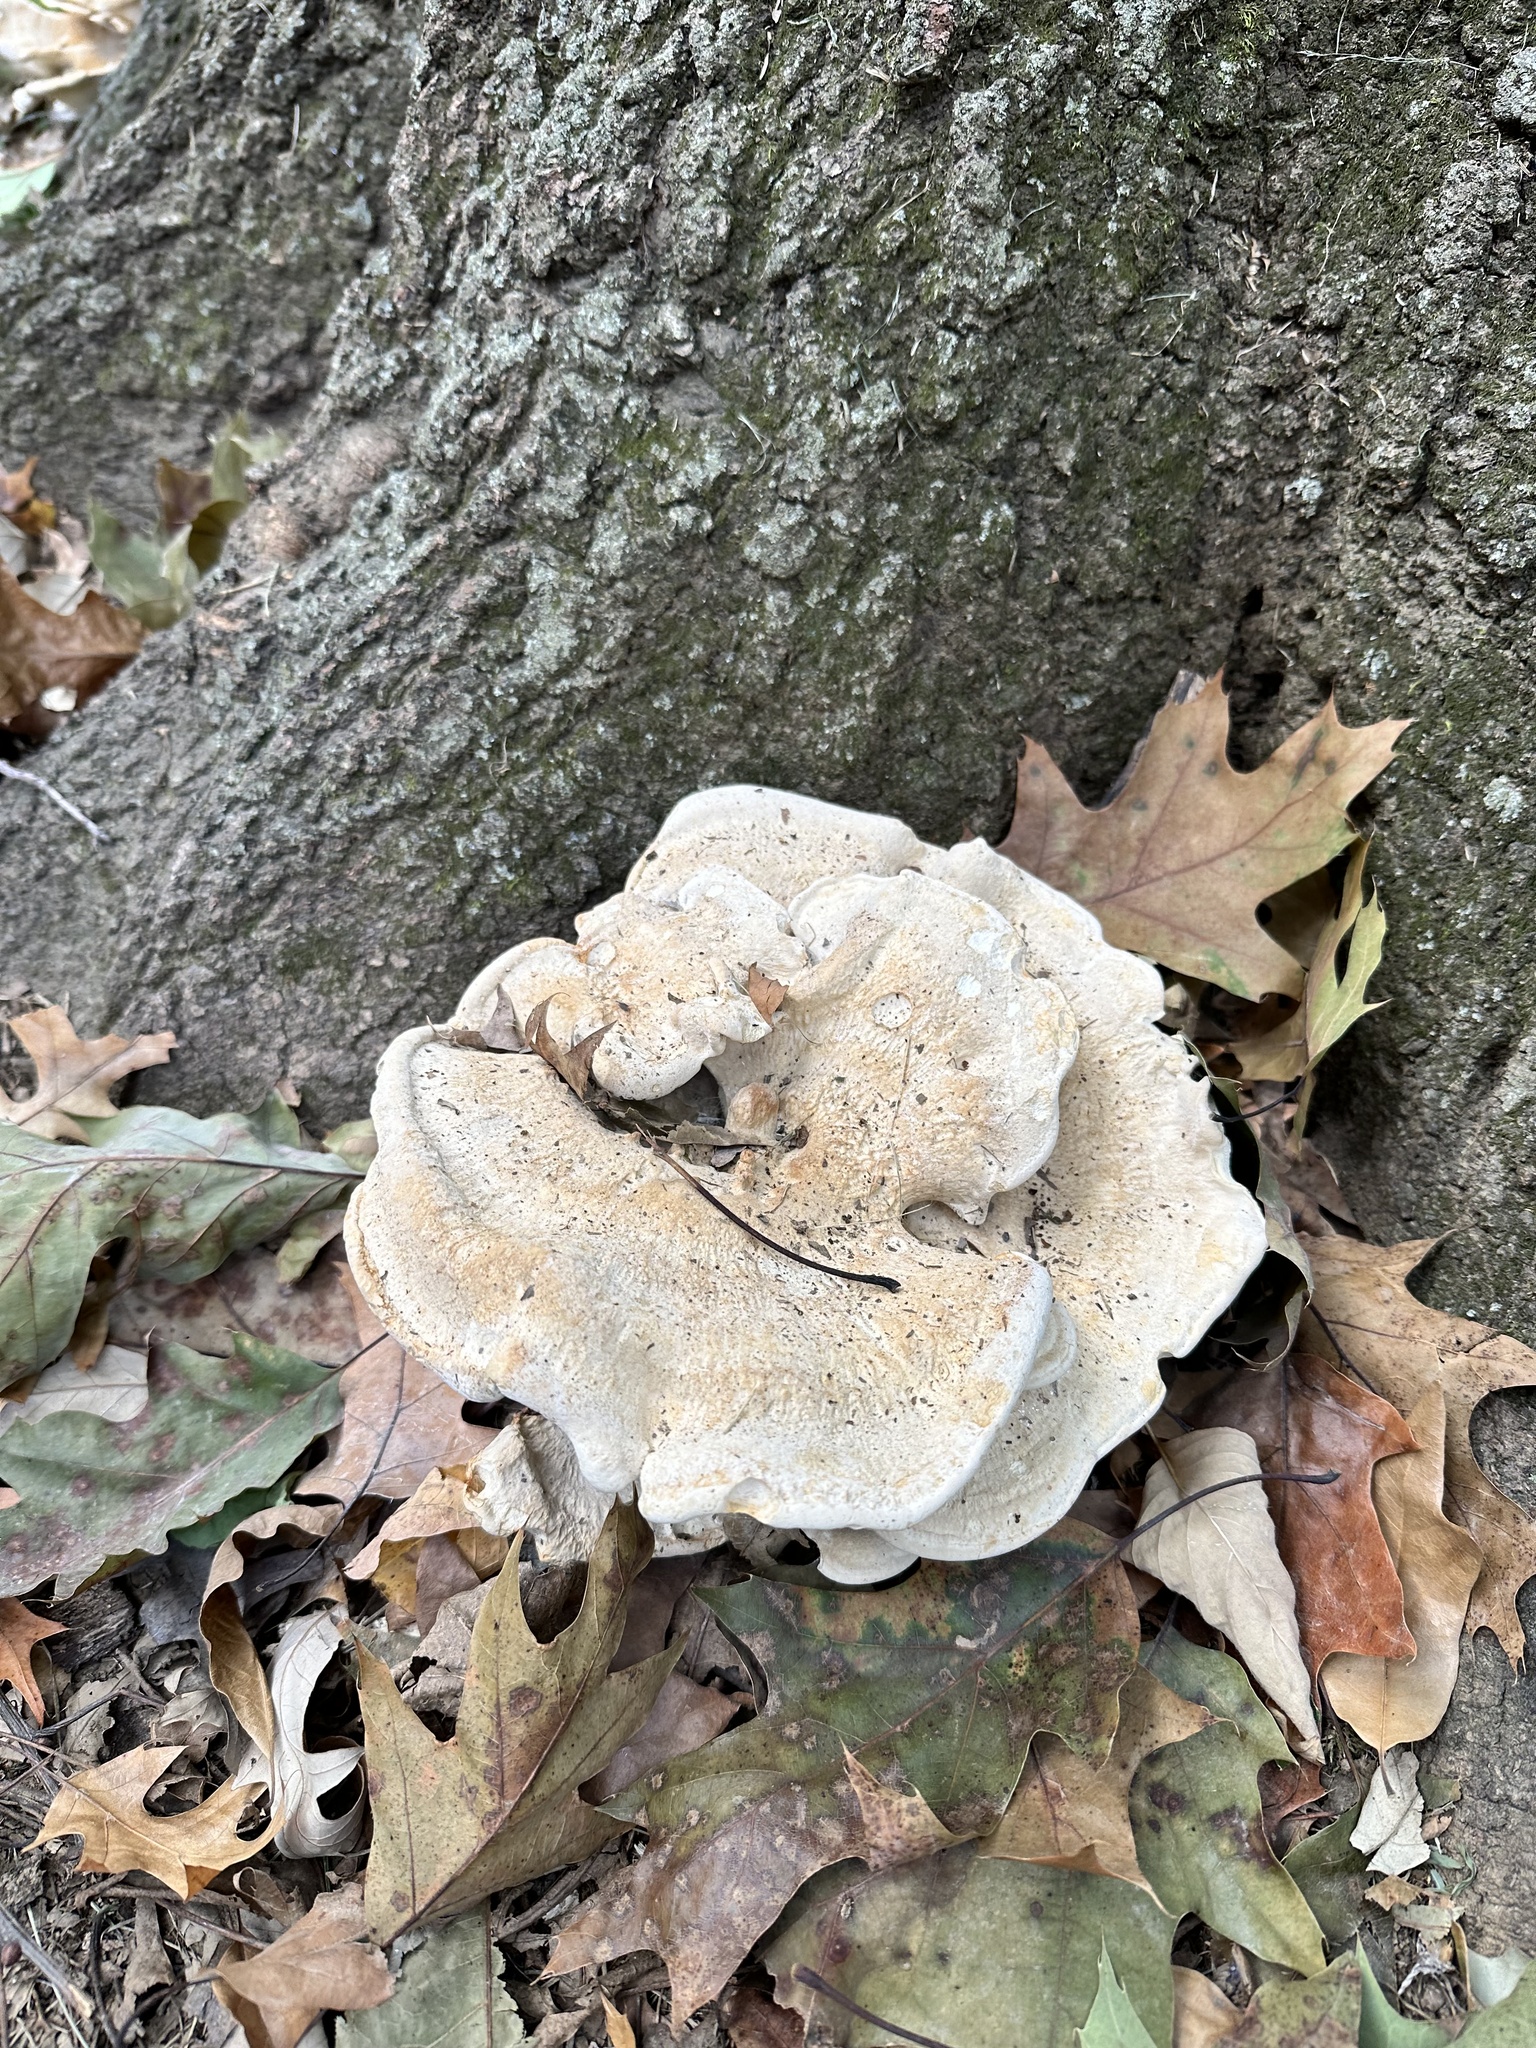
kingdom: Fungi
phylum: Basidiomycota
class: Agaricomycetes
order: Russulales
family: Bondarzewiaceae
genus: Bondarzewia
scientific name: Bondarzewia berkeleyi
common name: Berkeley's polypore
